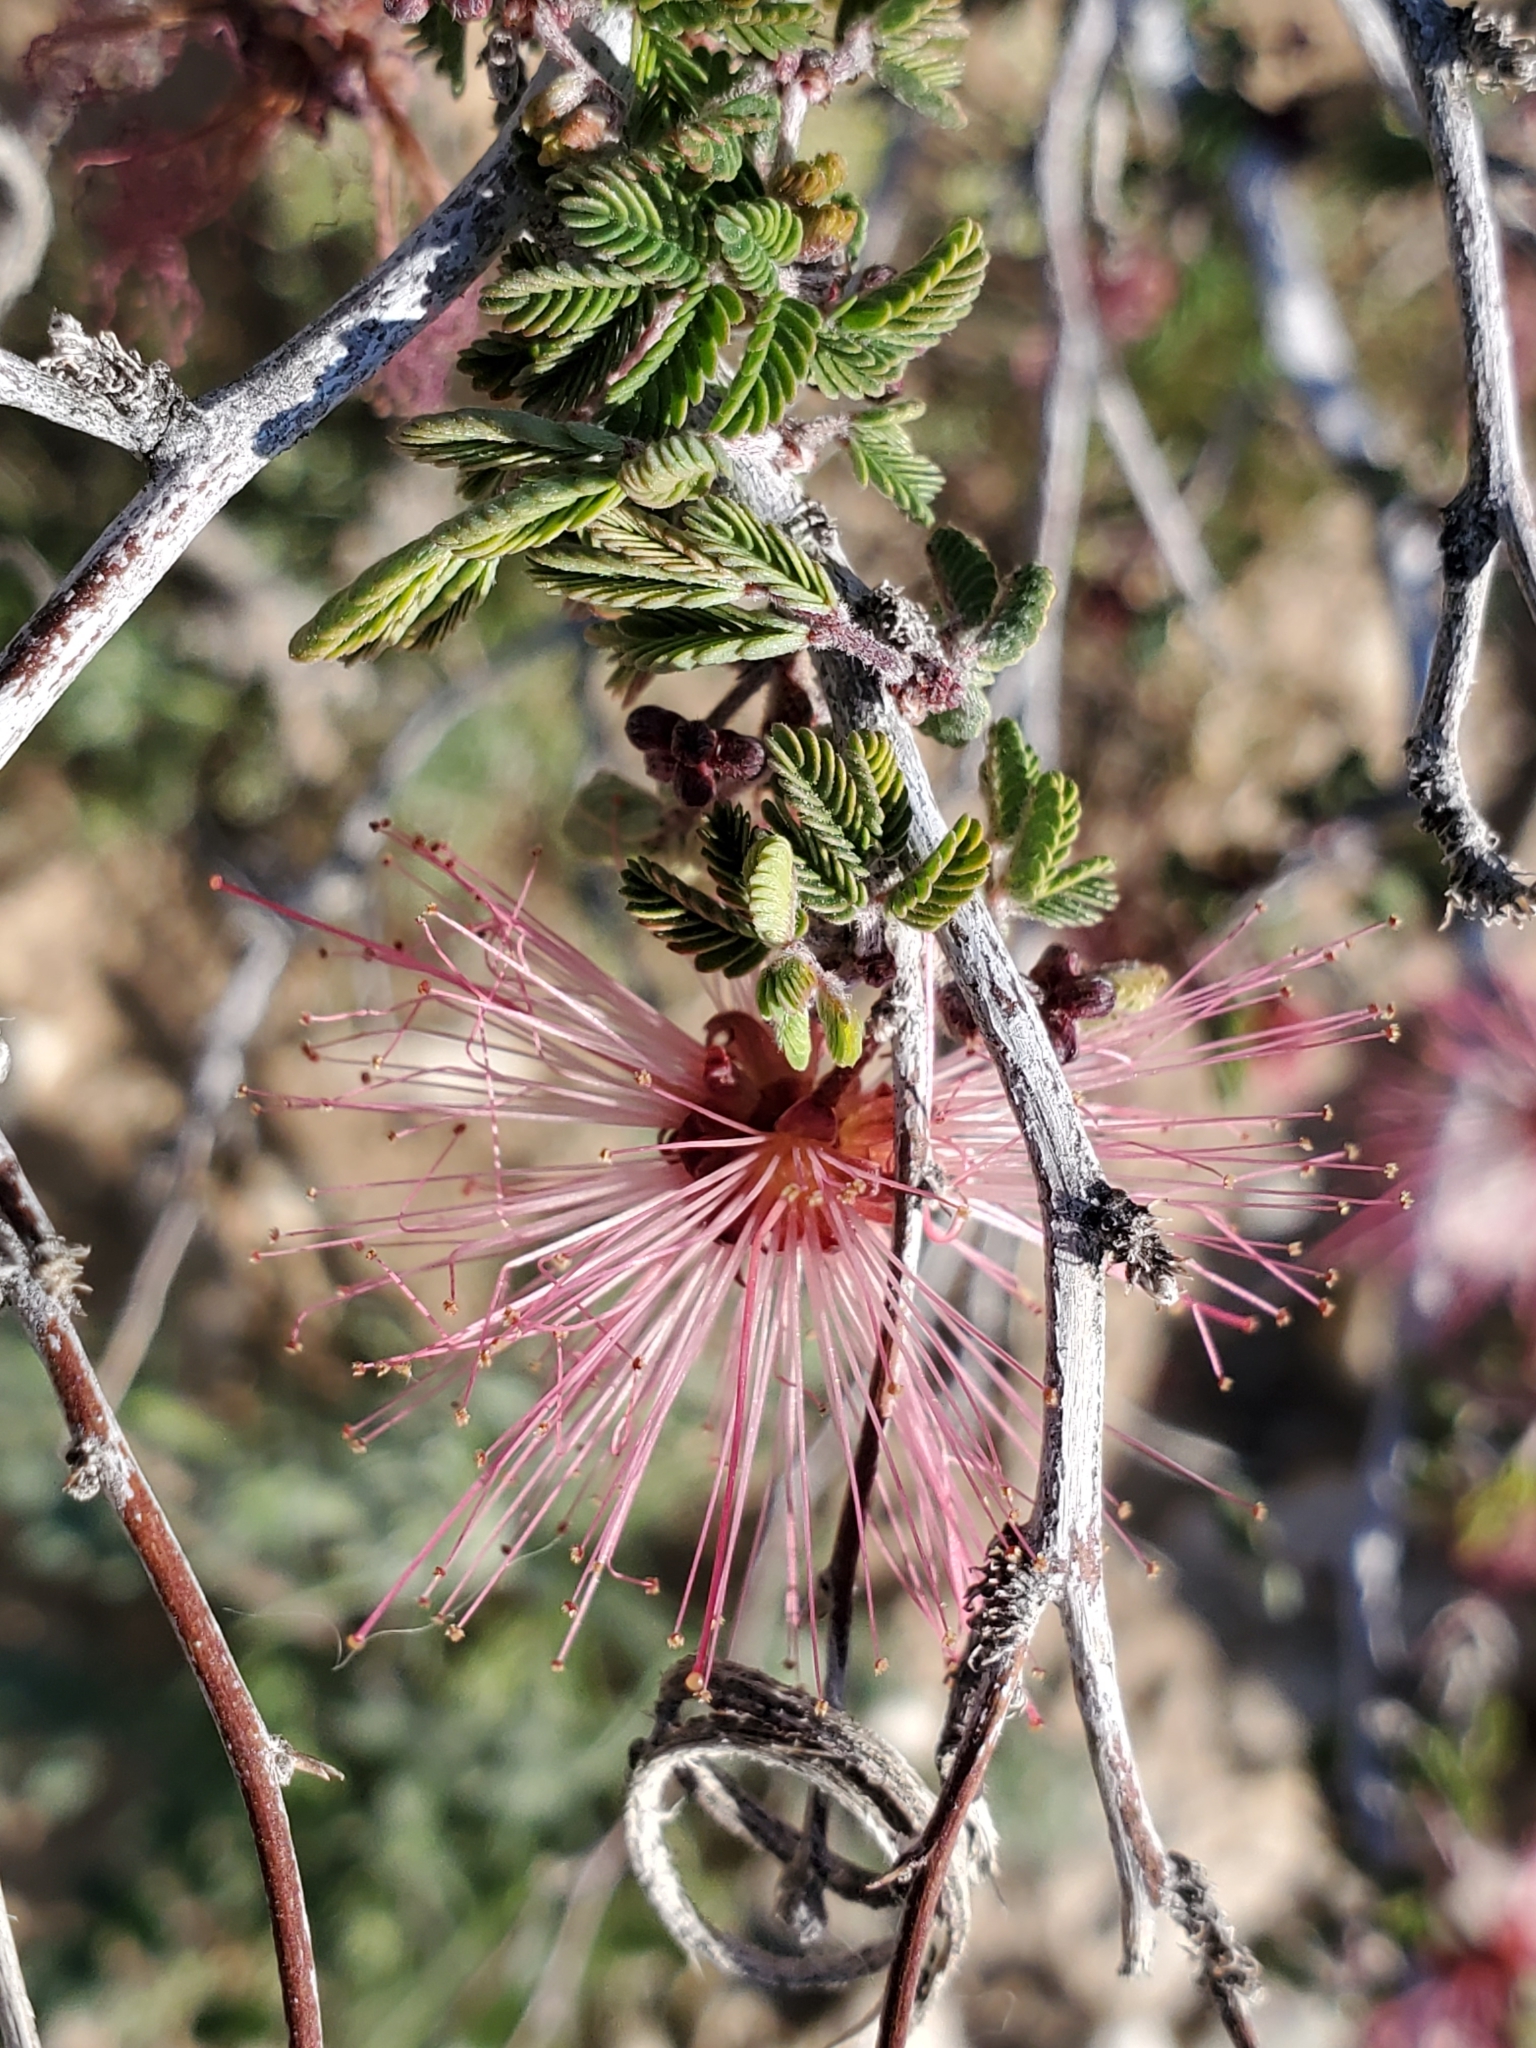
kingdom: Plantae
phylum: Tracheophyta
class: Magnoliopsida
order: Fabales
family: Fabaceae
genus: Calliandra
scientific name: Calliandra eriophylla
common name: Fairy-duster
